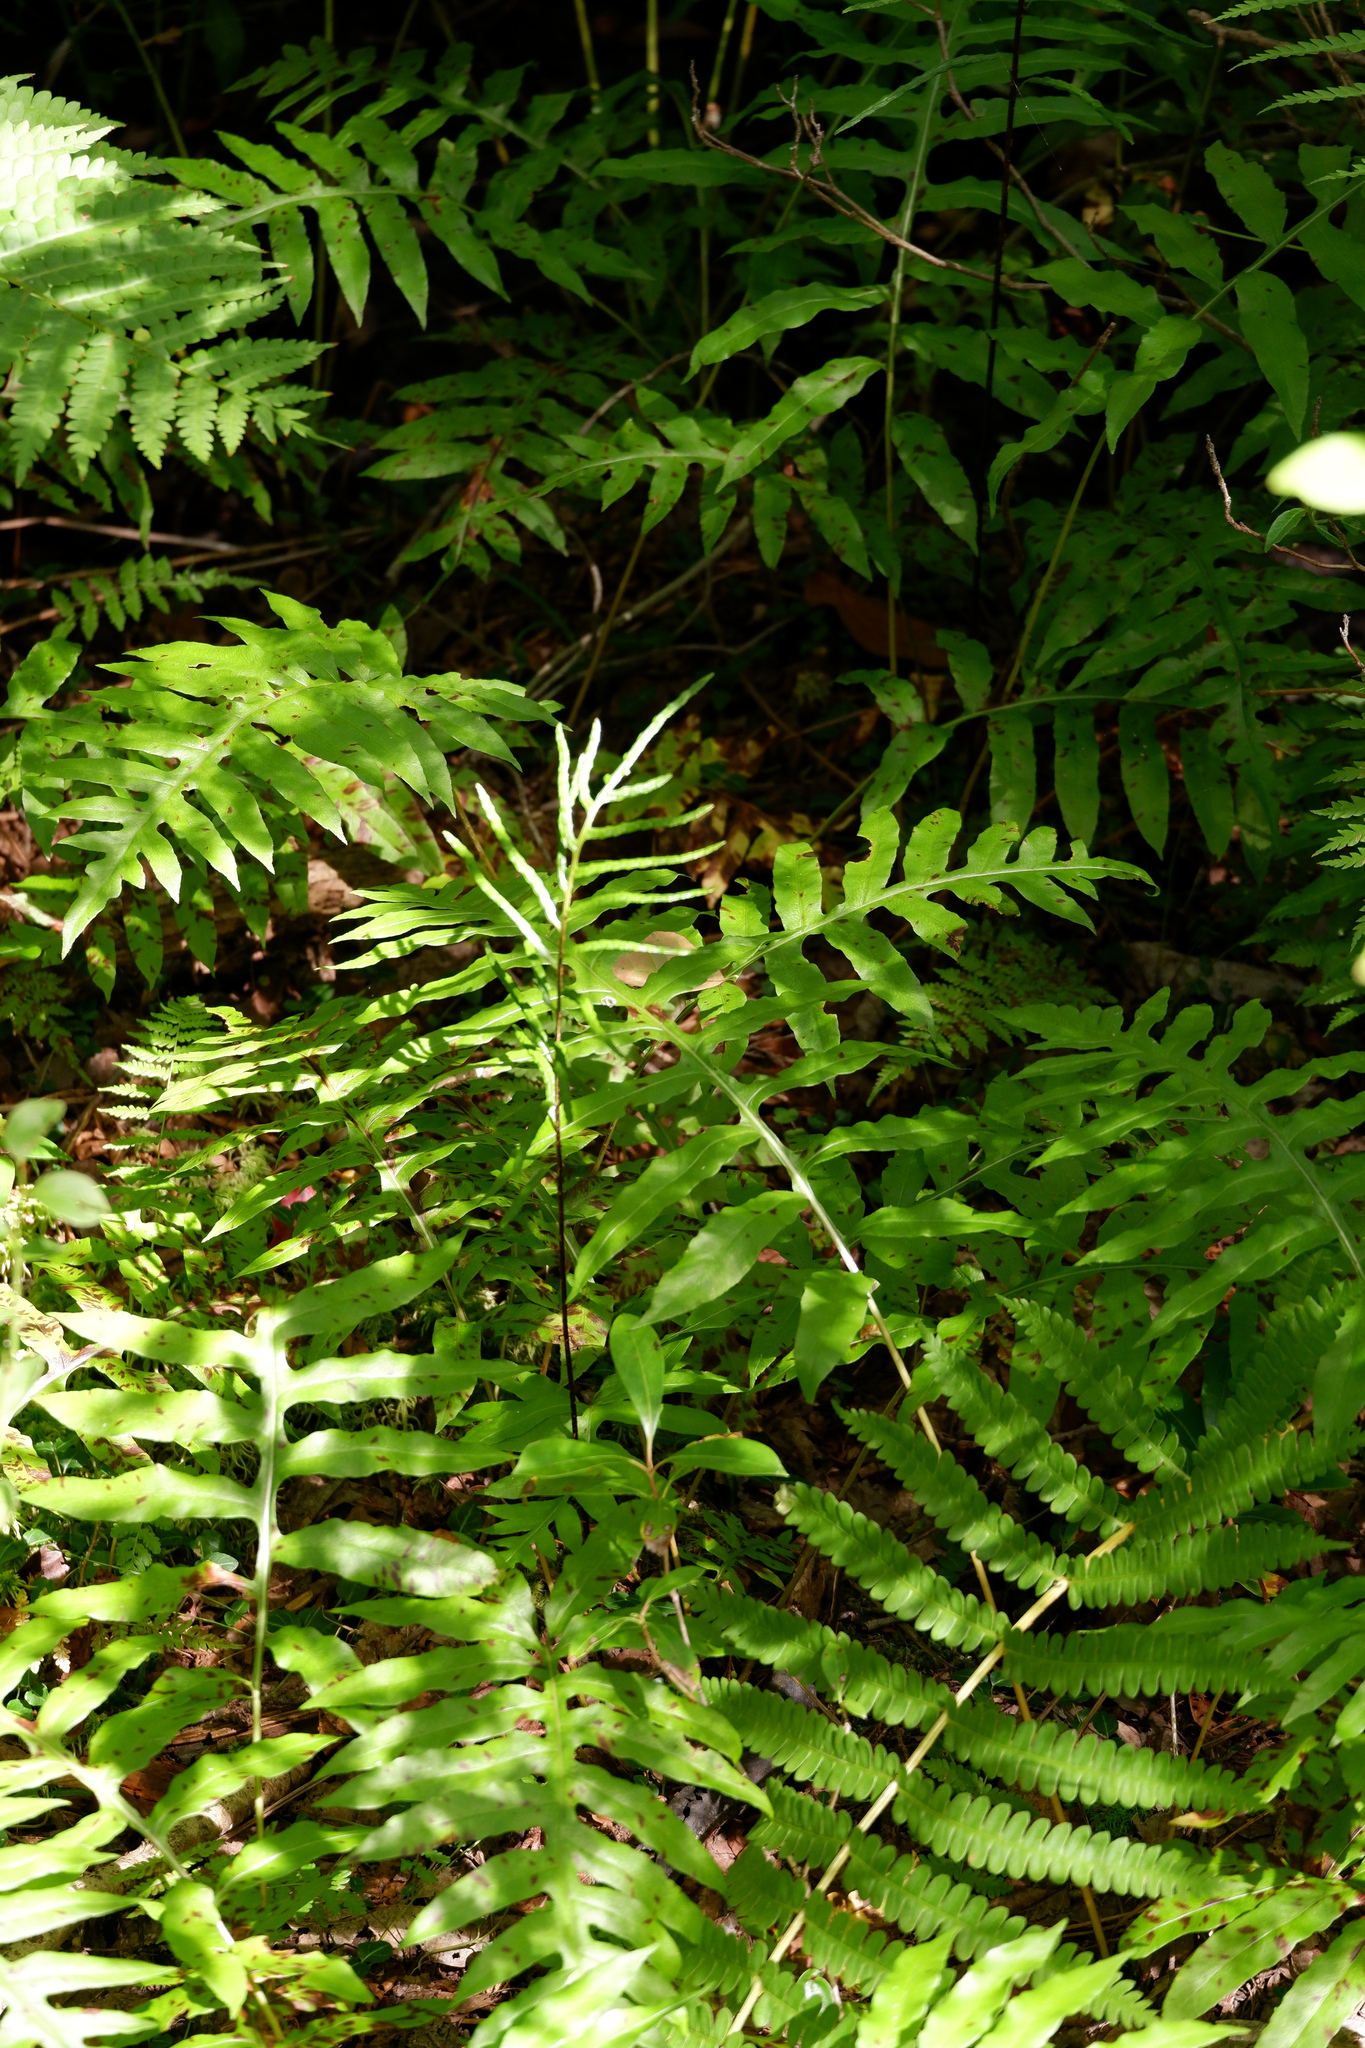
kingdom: Plantae
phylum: Tracheophyta
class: Polypodiopsida
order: Polypodiales
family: Blechnaceae
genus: Lorinseria
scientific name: Lorinseria areolata
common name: Dwarf chain fern
